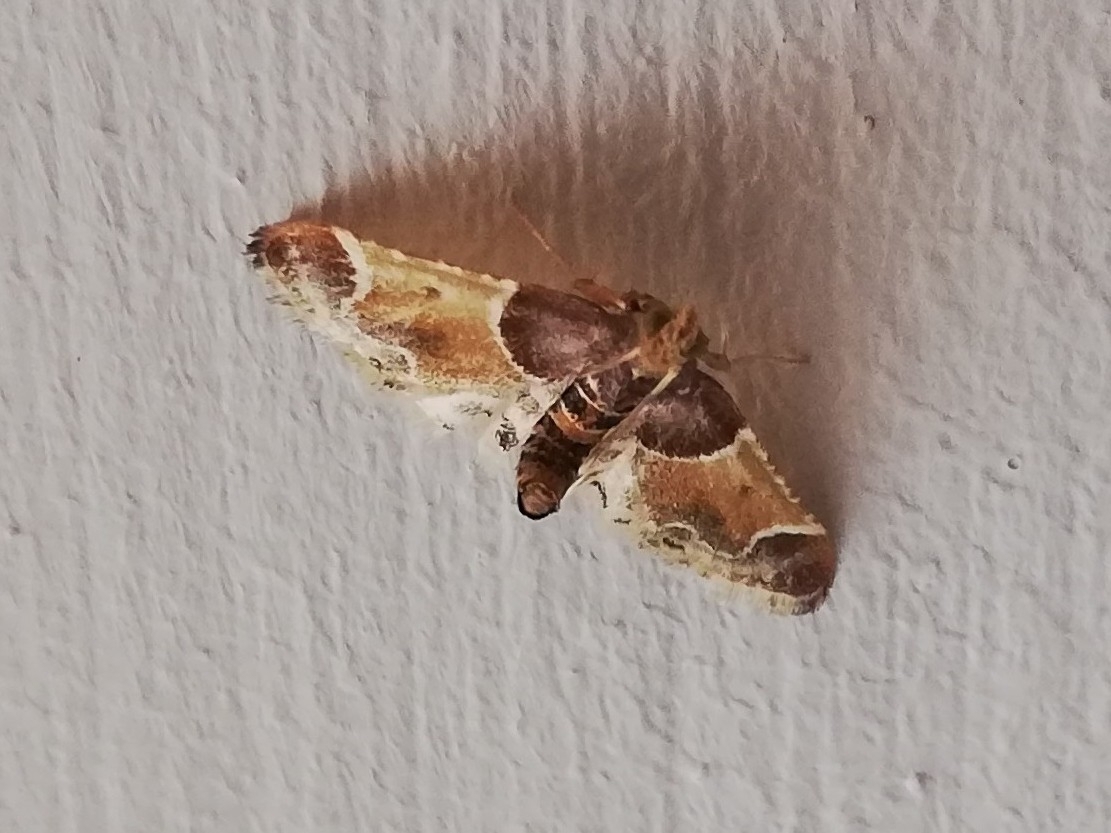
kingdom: Animalia
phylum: Arthropoda
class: Insecta
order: Lepidoptera
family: Pyralidae
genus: Pyralis
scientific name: Pyralis farinalis
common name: Meal moth
